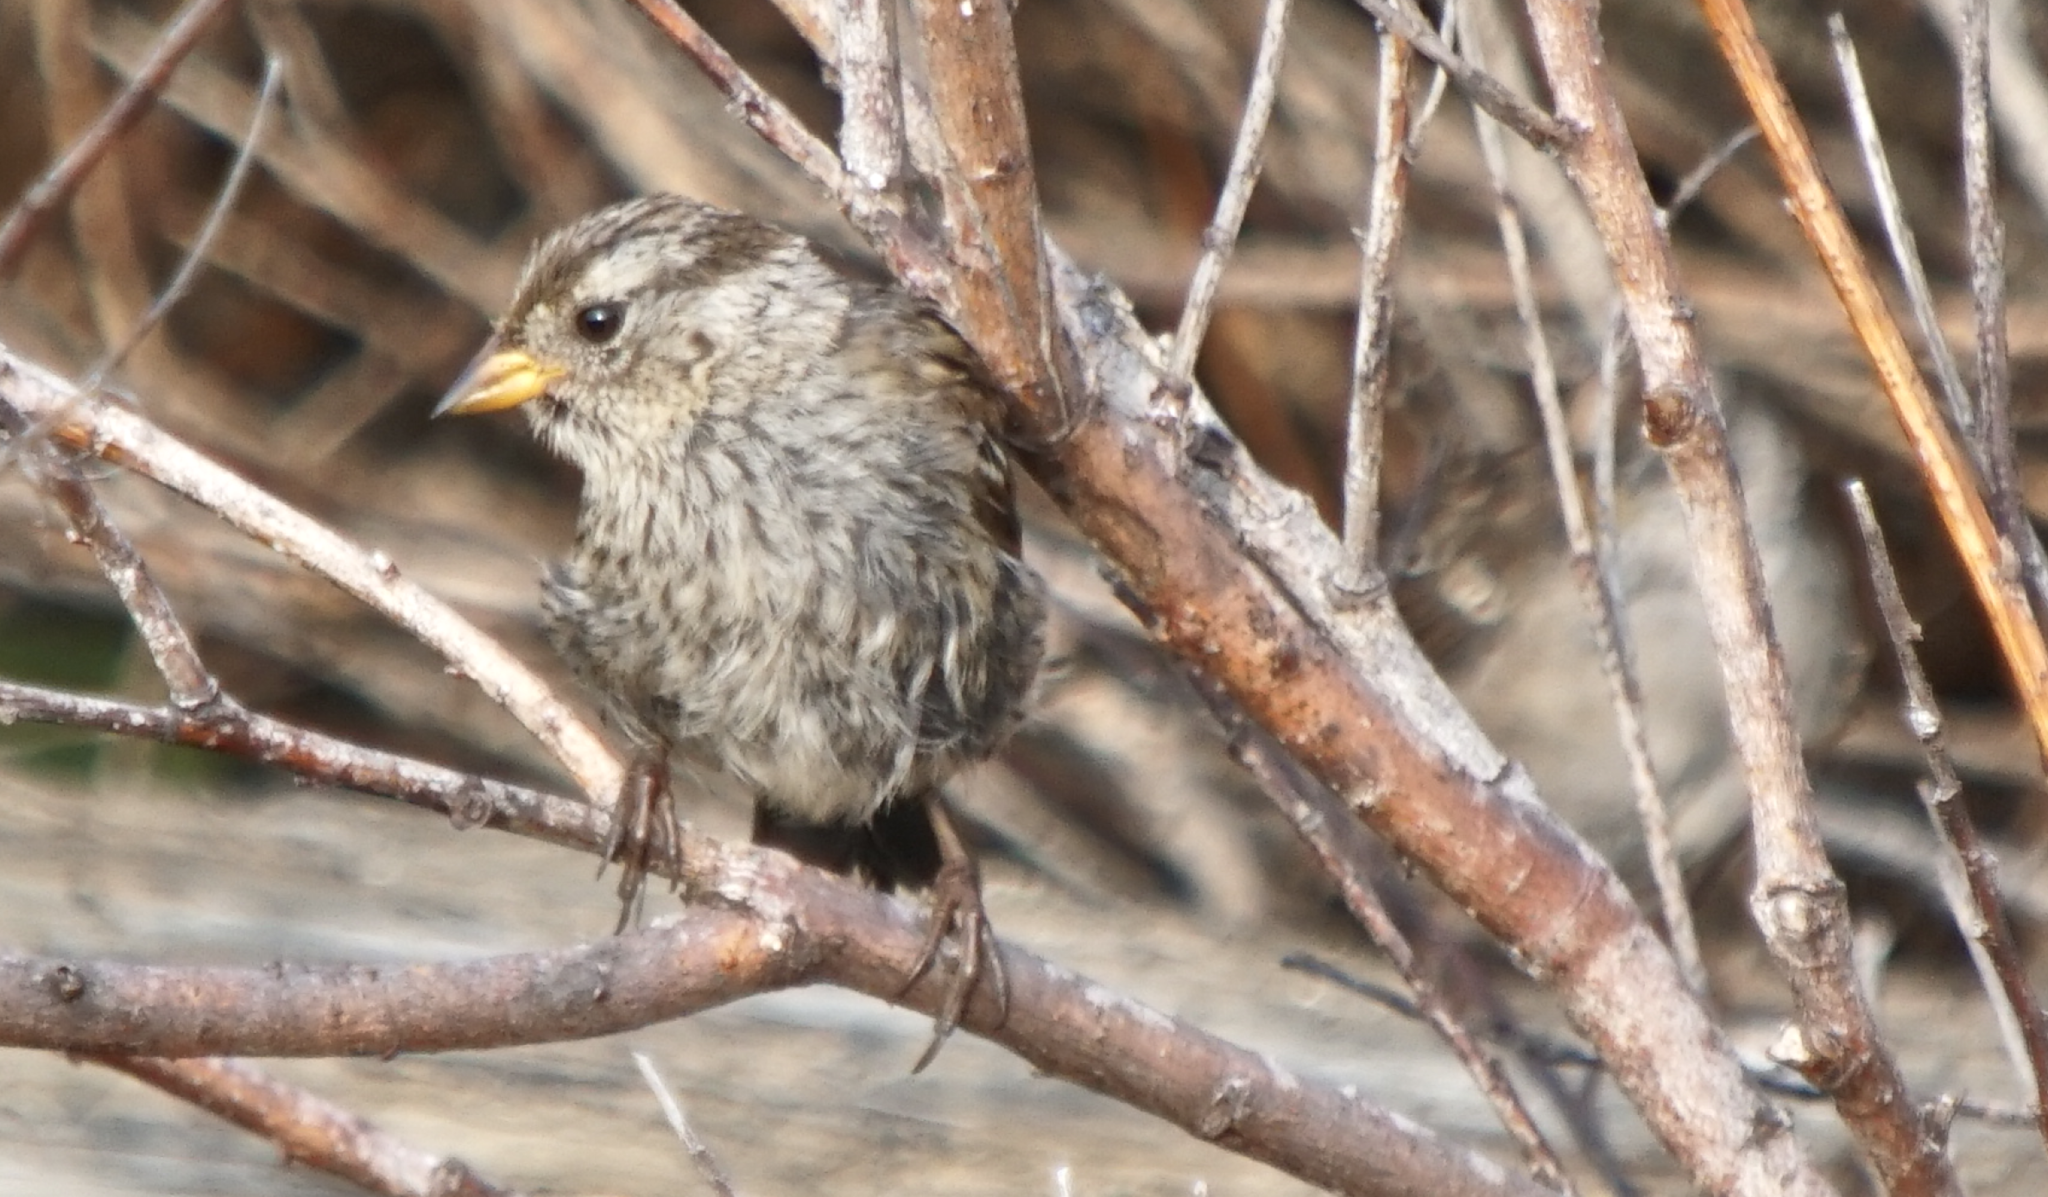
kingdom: Animalia
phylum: Chordata
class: Aves
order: Passeriformes
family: Passerellidae
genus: Zonotrichia
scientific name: Zonotrichia leucophrys
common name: White-crowned sparrow
